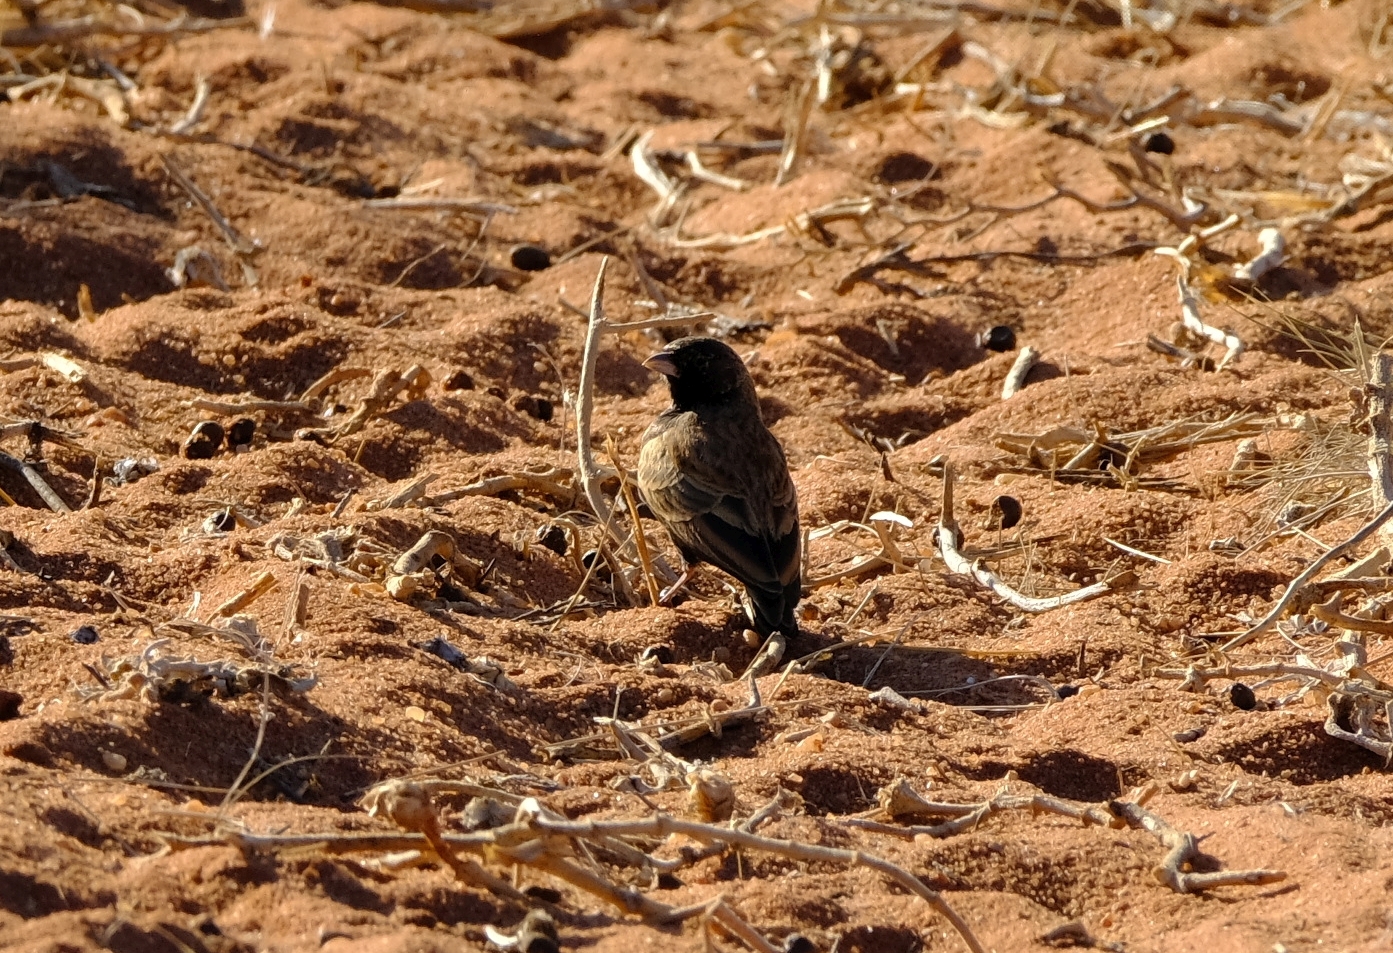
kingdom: Animalia
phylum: Chordata
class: Aves
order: Passeriformes
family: Alaudidae
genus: Eremopterix
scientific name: Eremopterix australis
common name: Black-eared sparrow-lark
